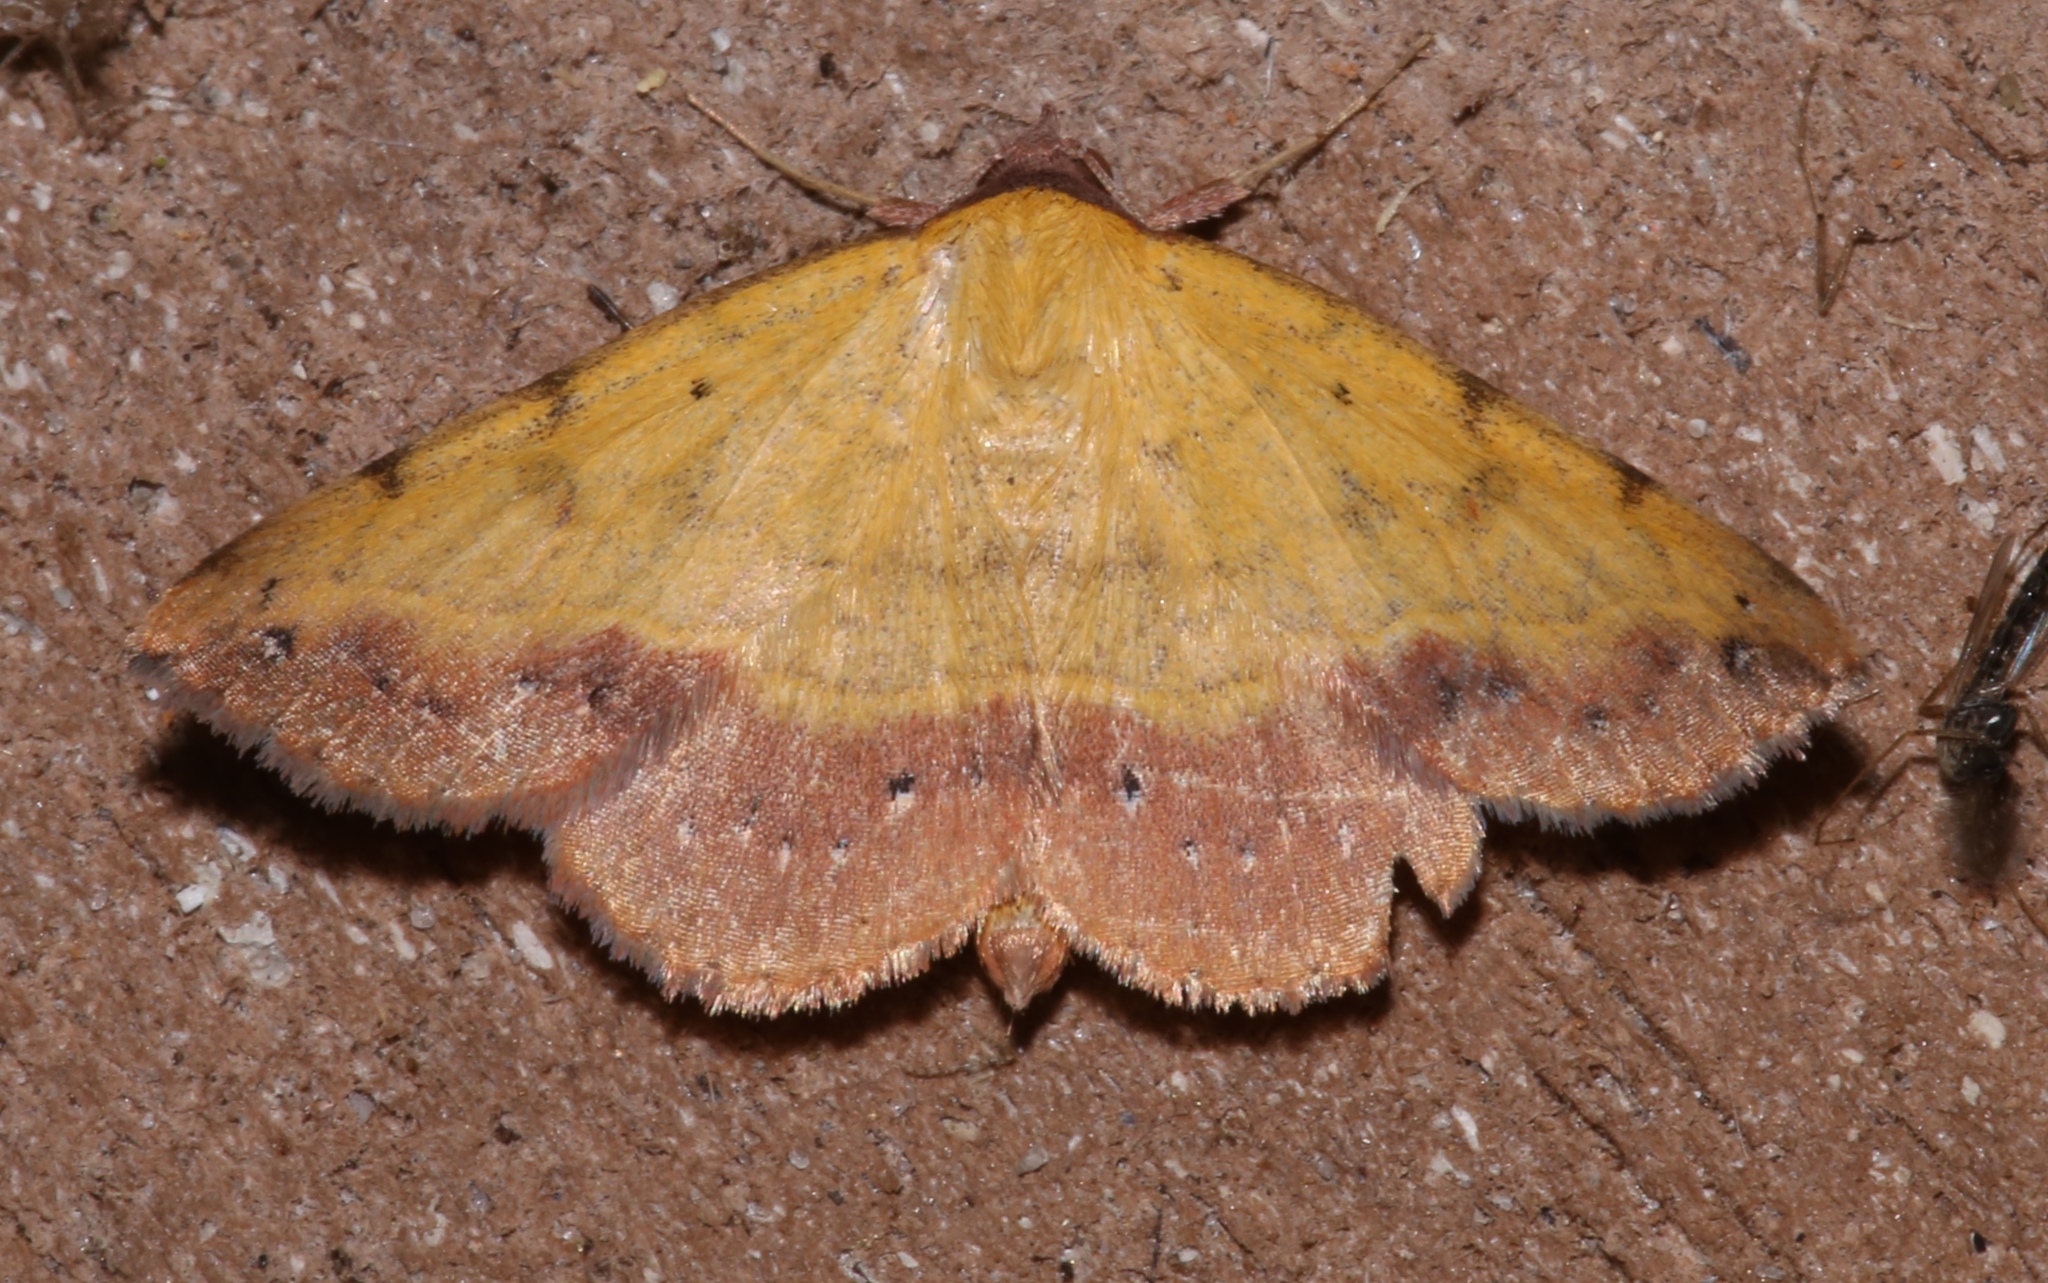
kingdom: Animalia
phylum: Arthropoda
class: Insecta
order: Lepidoptera
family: Erebidae
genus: Hemeroplanis
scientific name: Hemeroplanis scopulepes
